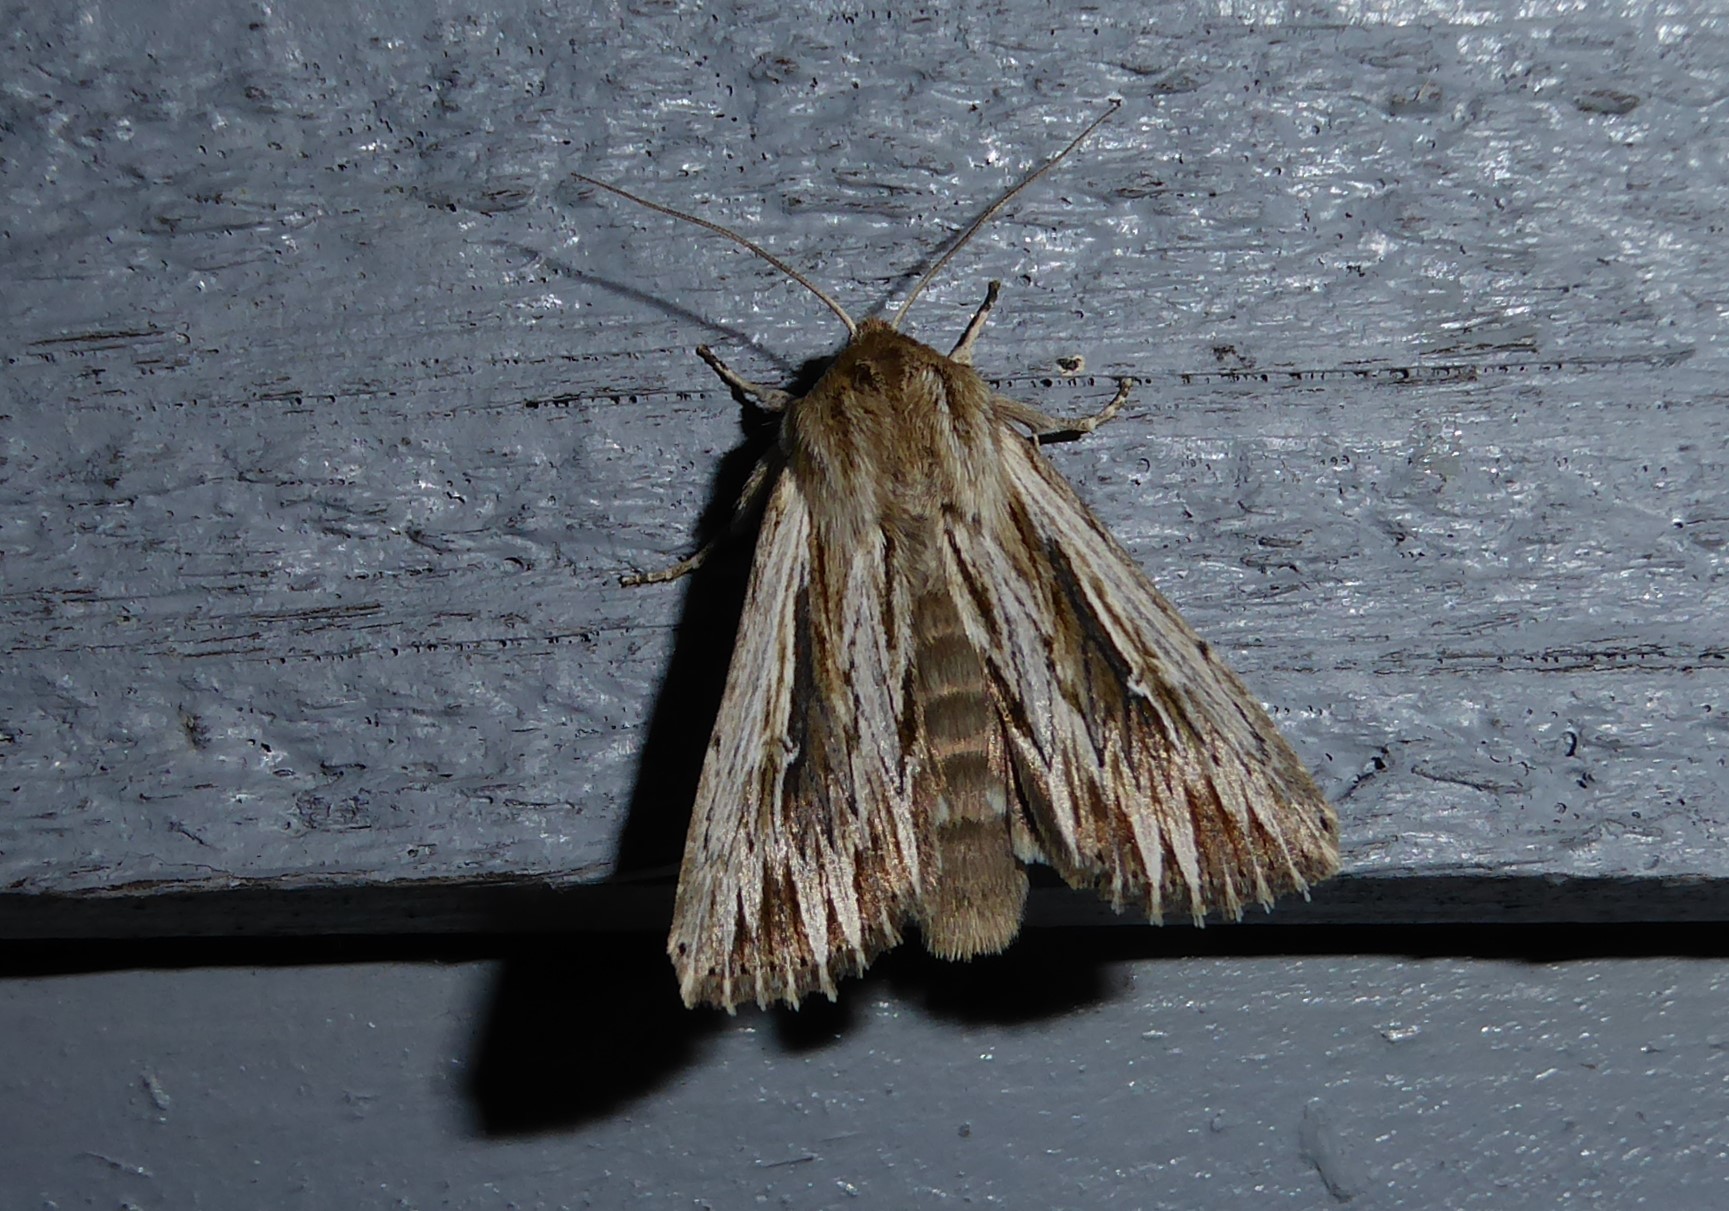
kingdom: Animalia
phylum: Arthropoda
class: Insecta
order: Lepidoptera
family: Noctuidae
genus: Persectania
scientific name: Persectania aversa
